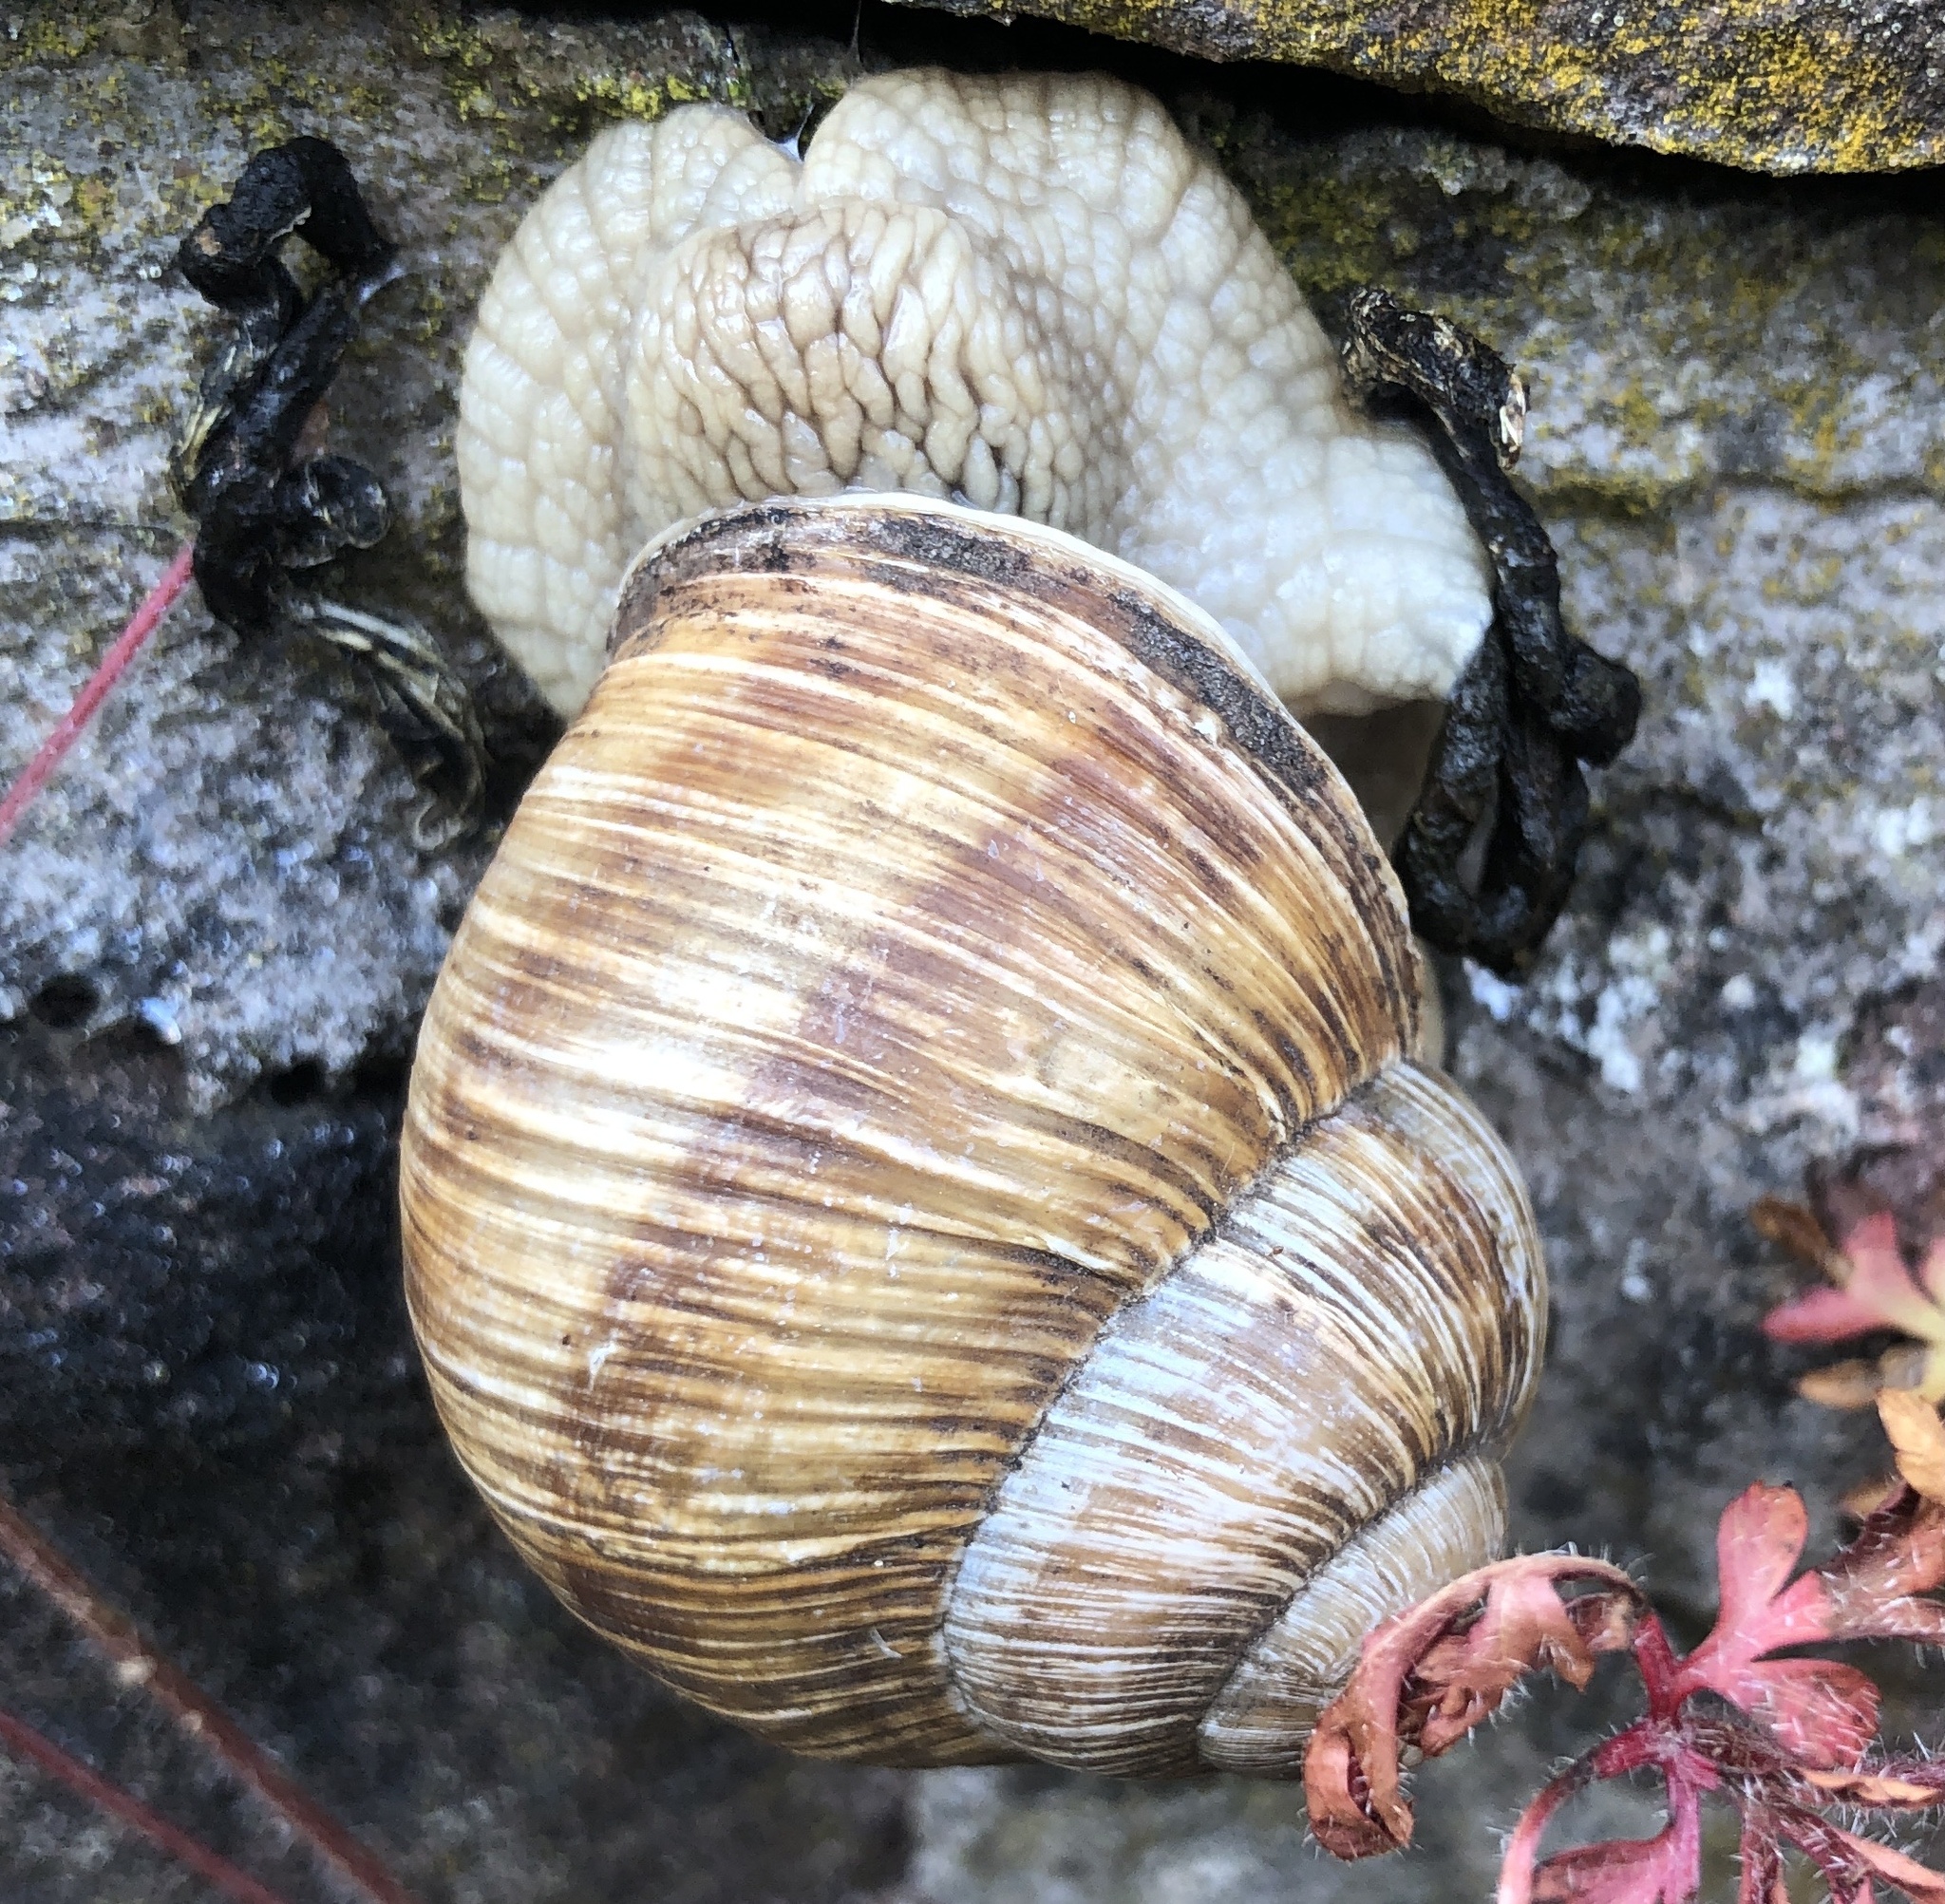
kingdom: Animalia
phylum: Mollusca
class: Gastropoda
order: Stylommatophora
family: Helicidae
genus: Helix
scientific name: Helix pomatia
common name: Roman snail
